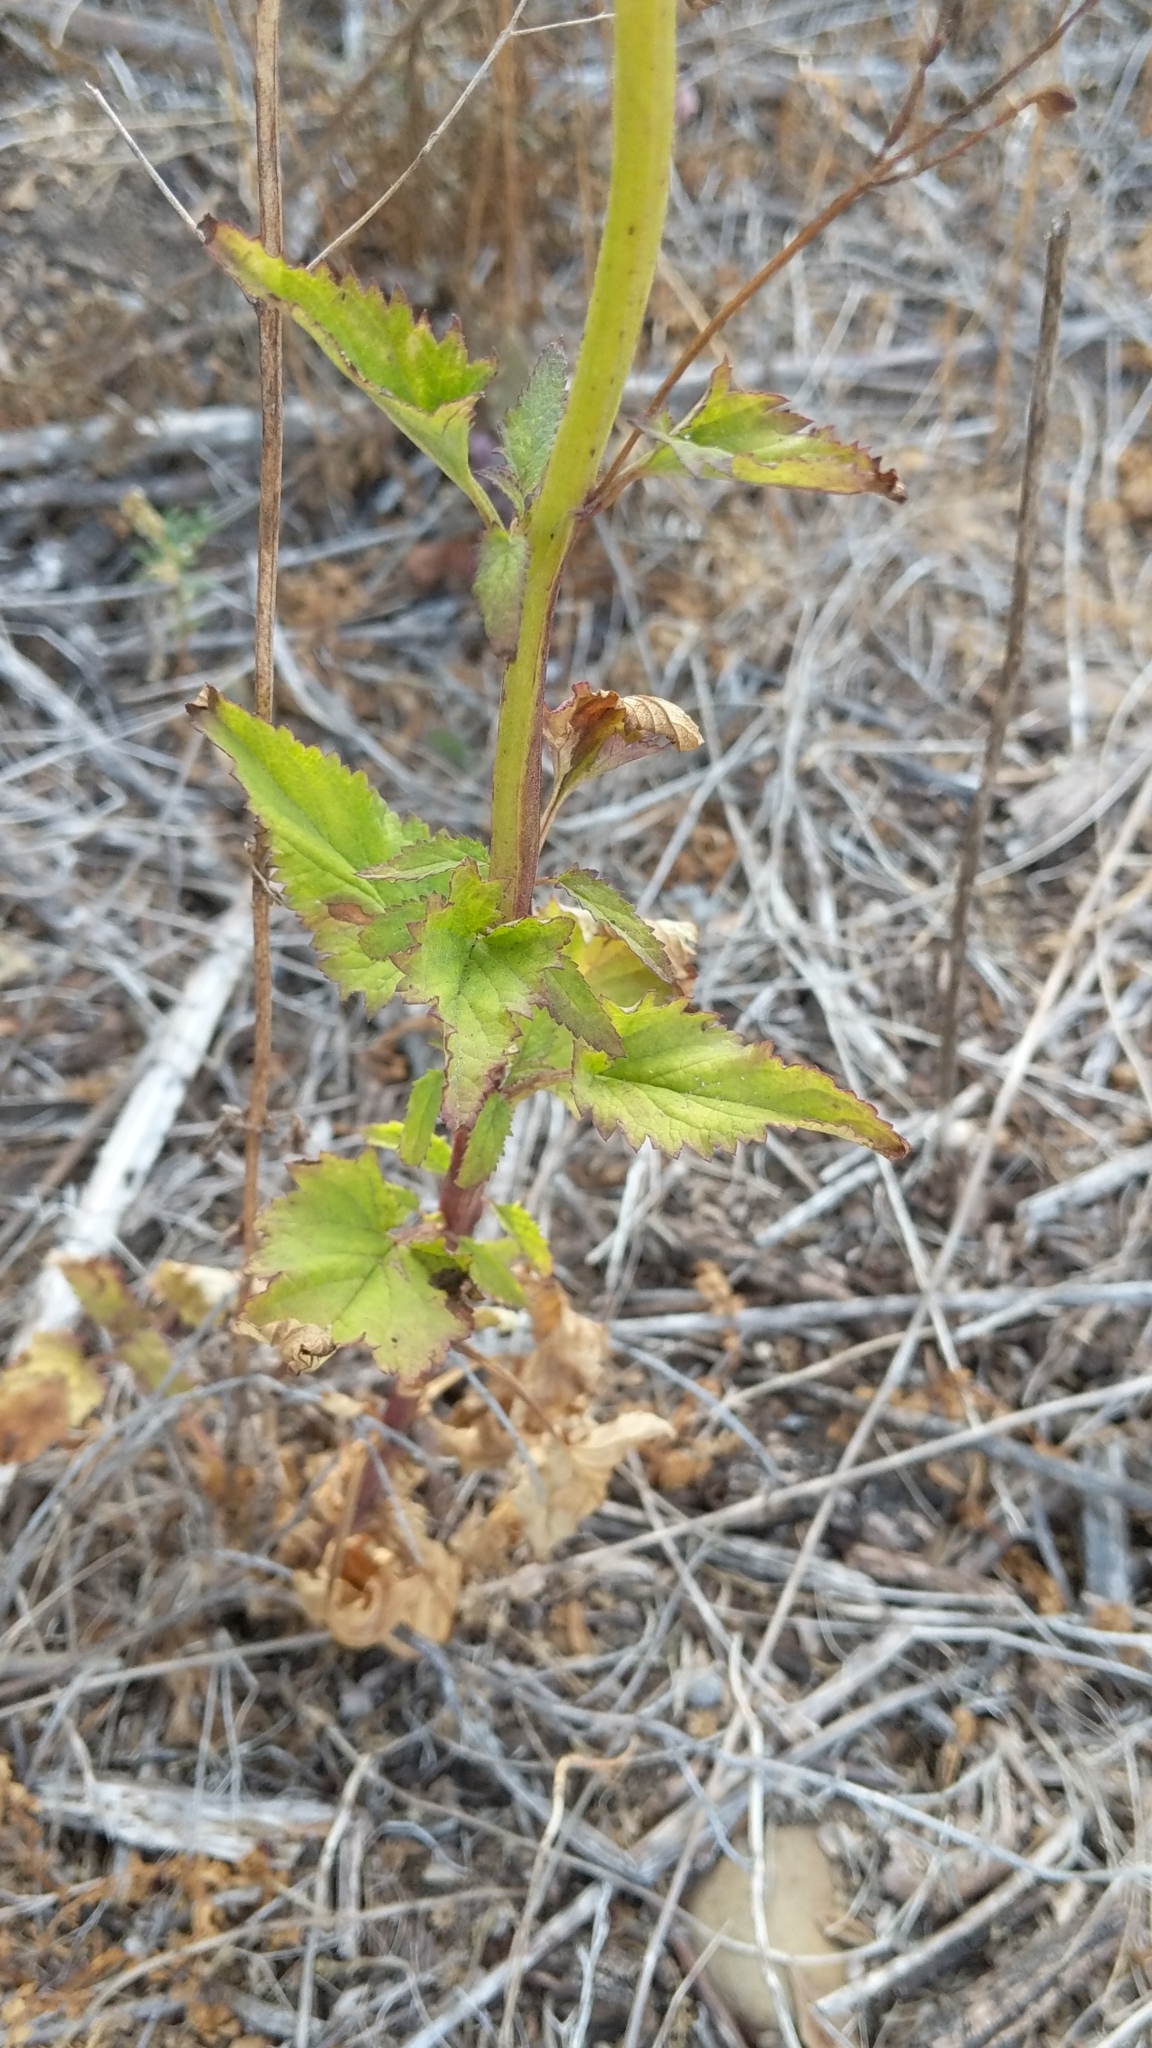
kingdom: Plantae
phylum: Tracheophyta
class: Magnoliopsida
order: Lamiales
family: Scrophulariaceae
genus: Scrophularia
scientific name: Scrophularia californica
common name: California figwort
